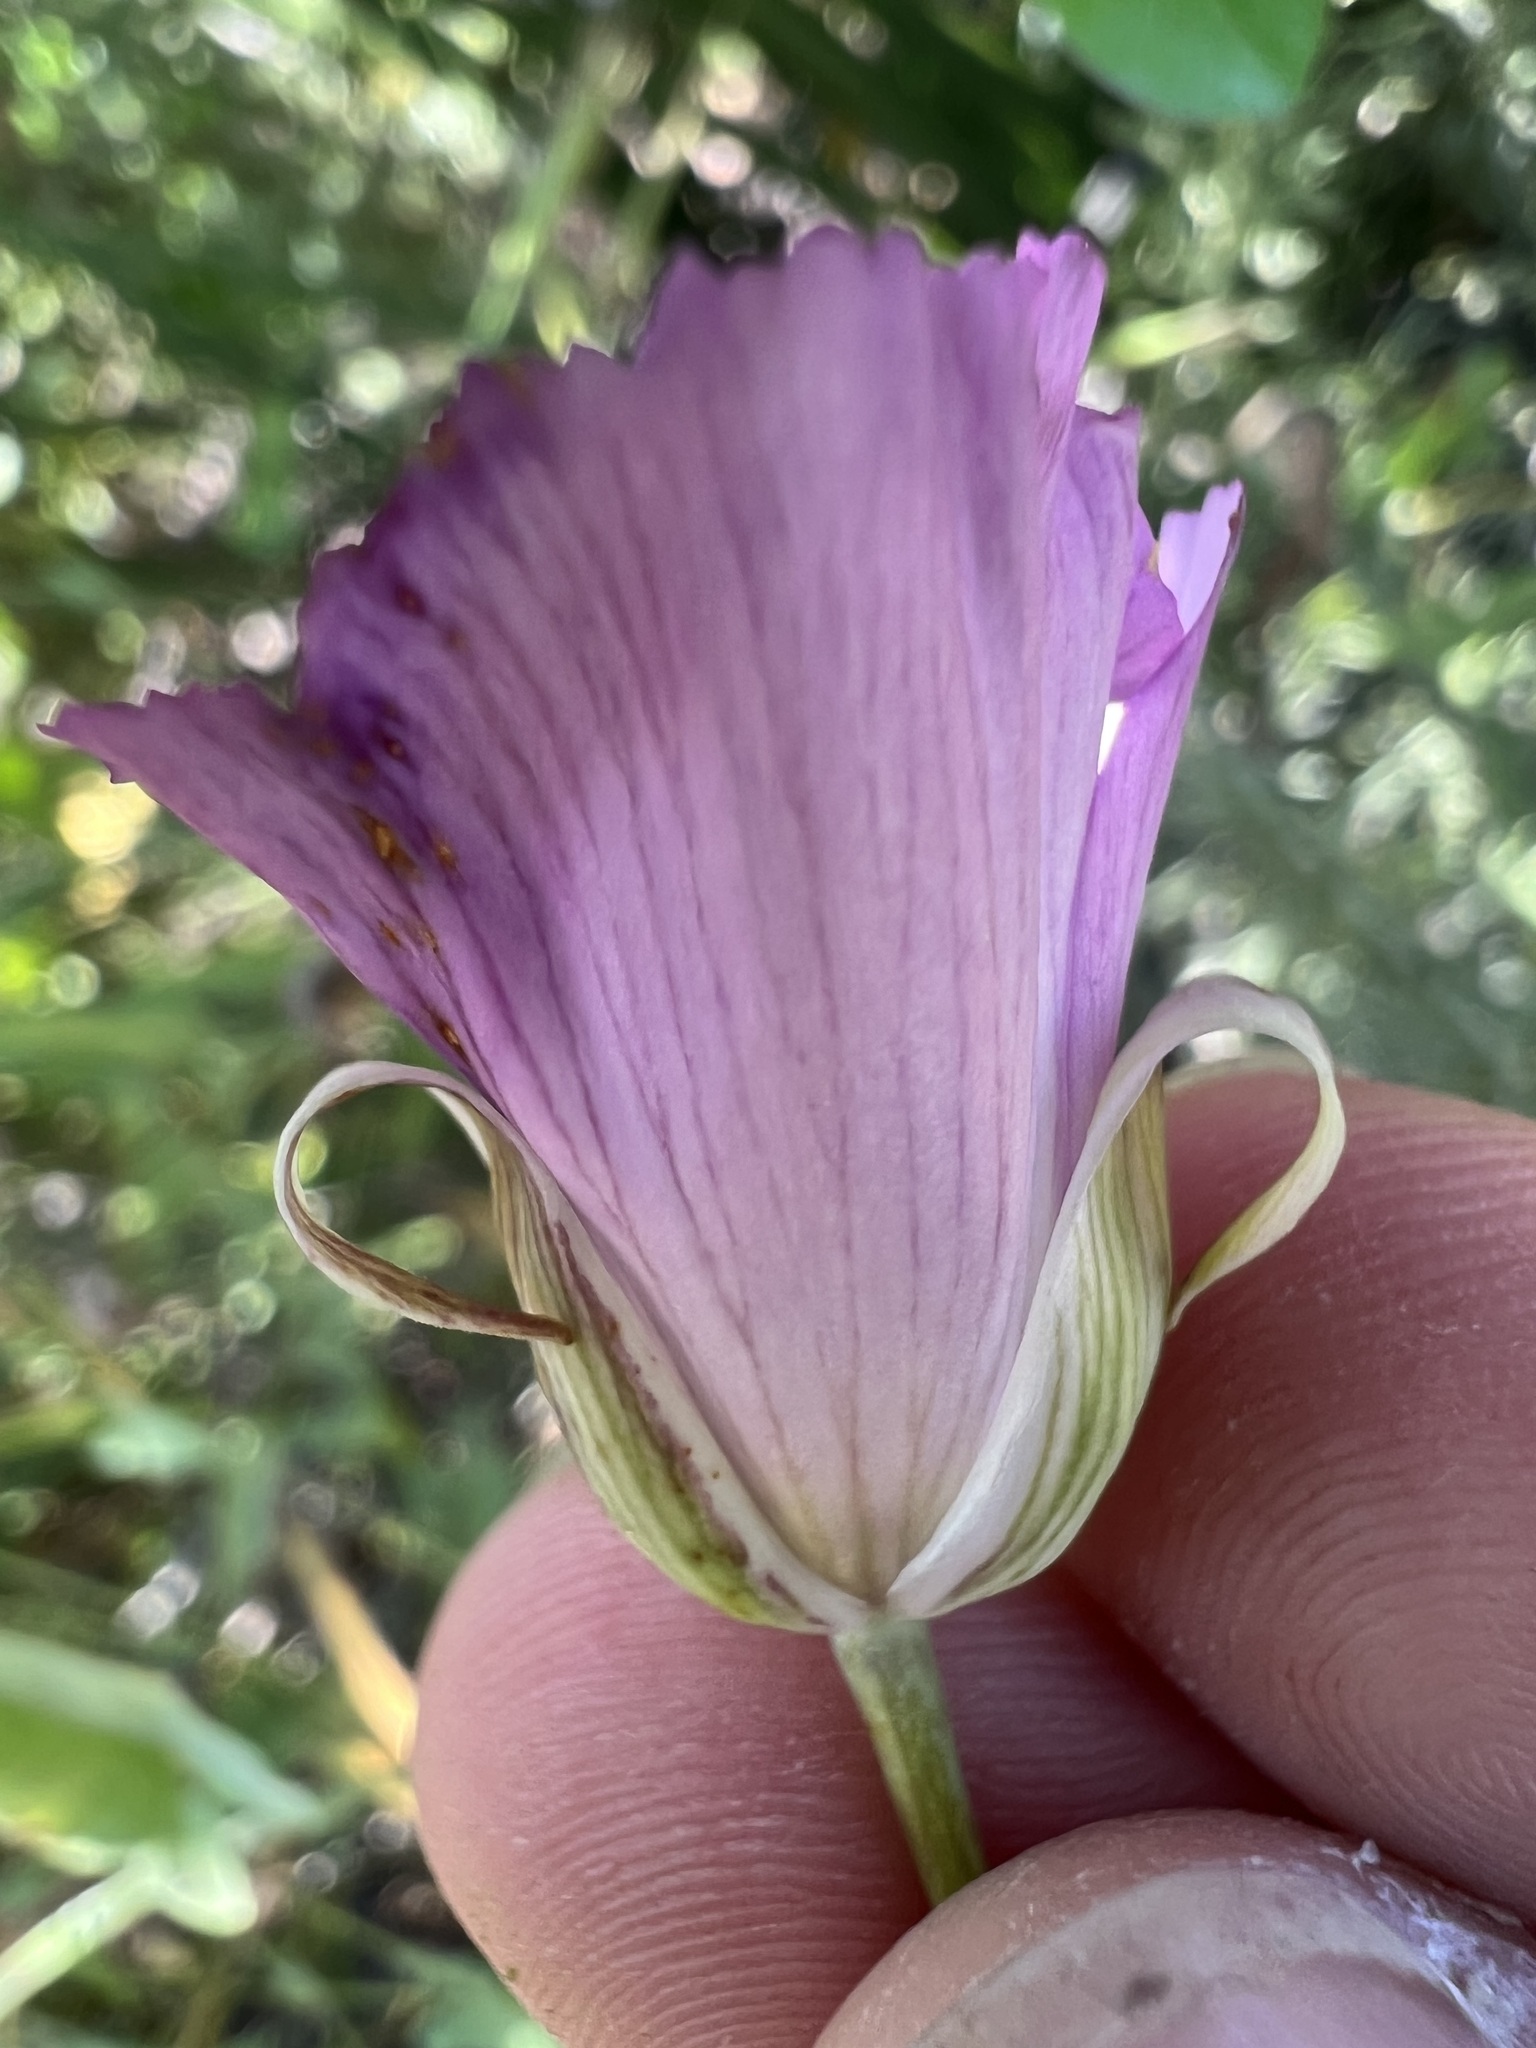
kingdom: Plantae
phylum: Tracheophyta
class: Liliopsida
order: Liliales
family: Liliaceae
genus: Calochortus
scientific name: Calochortus splendens
